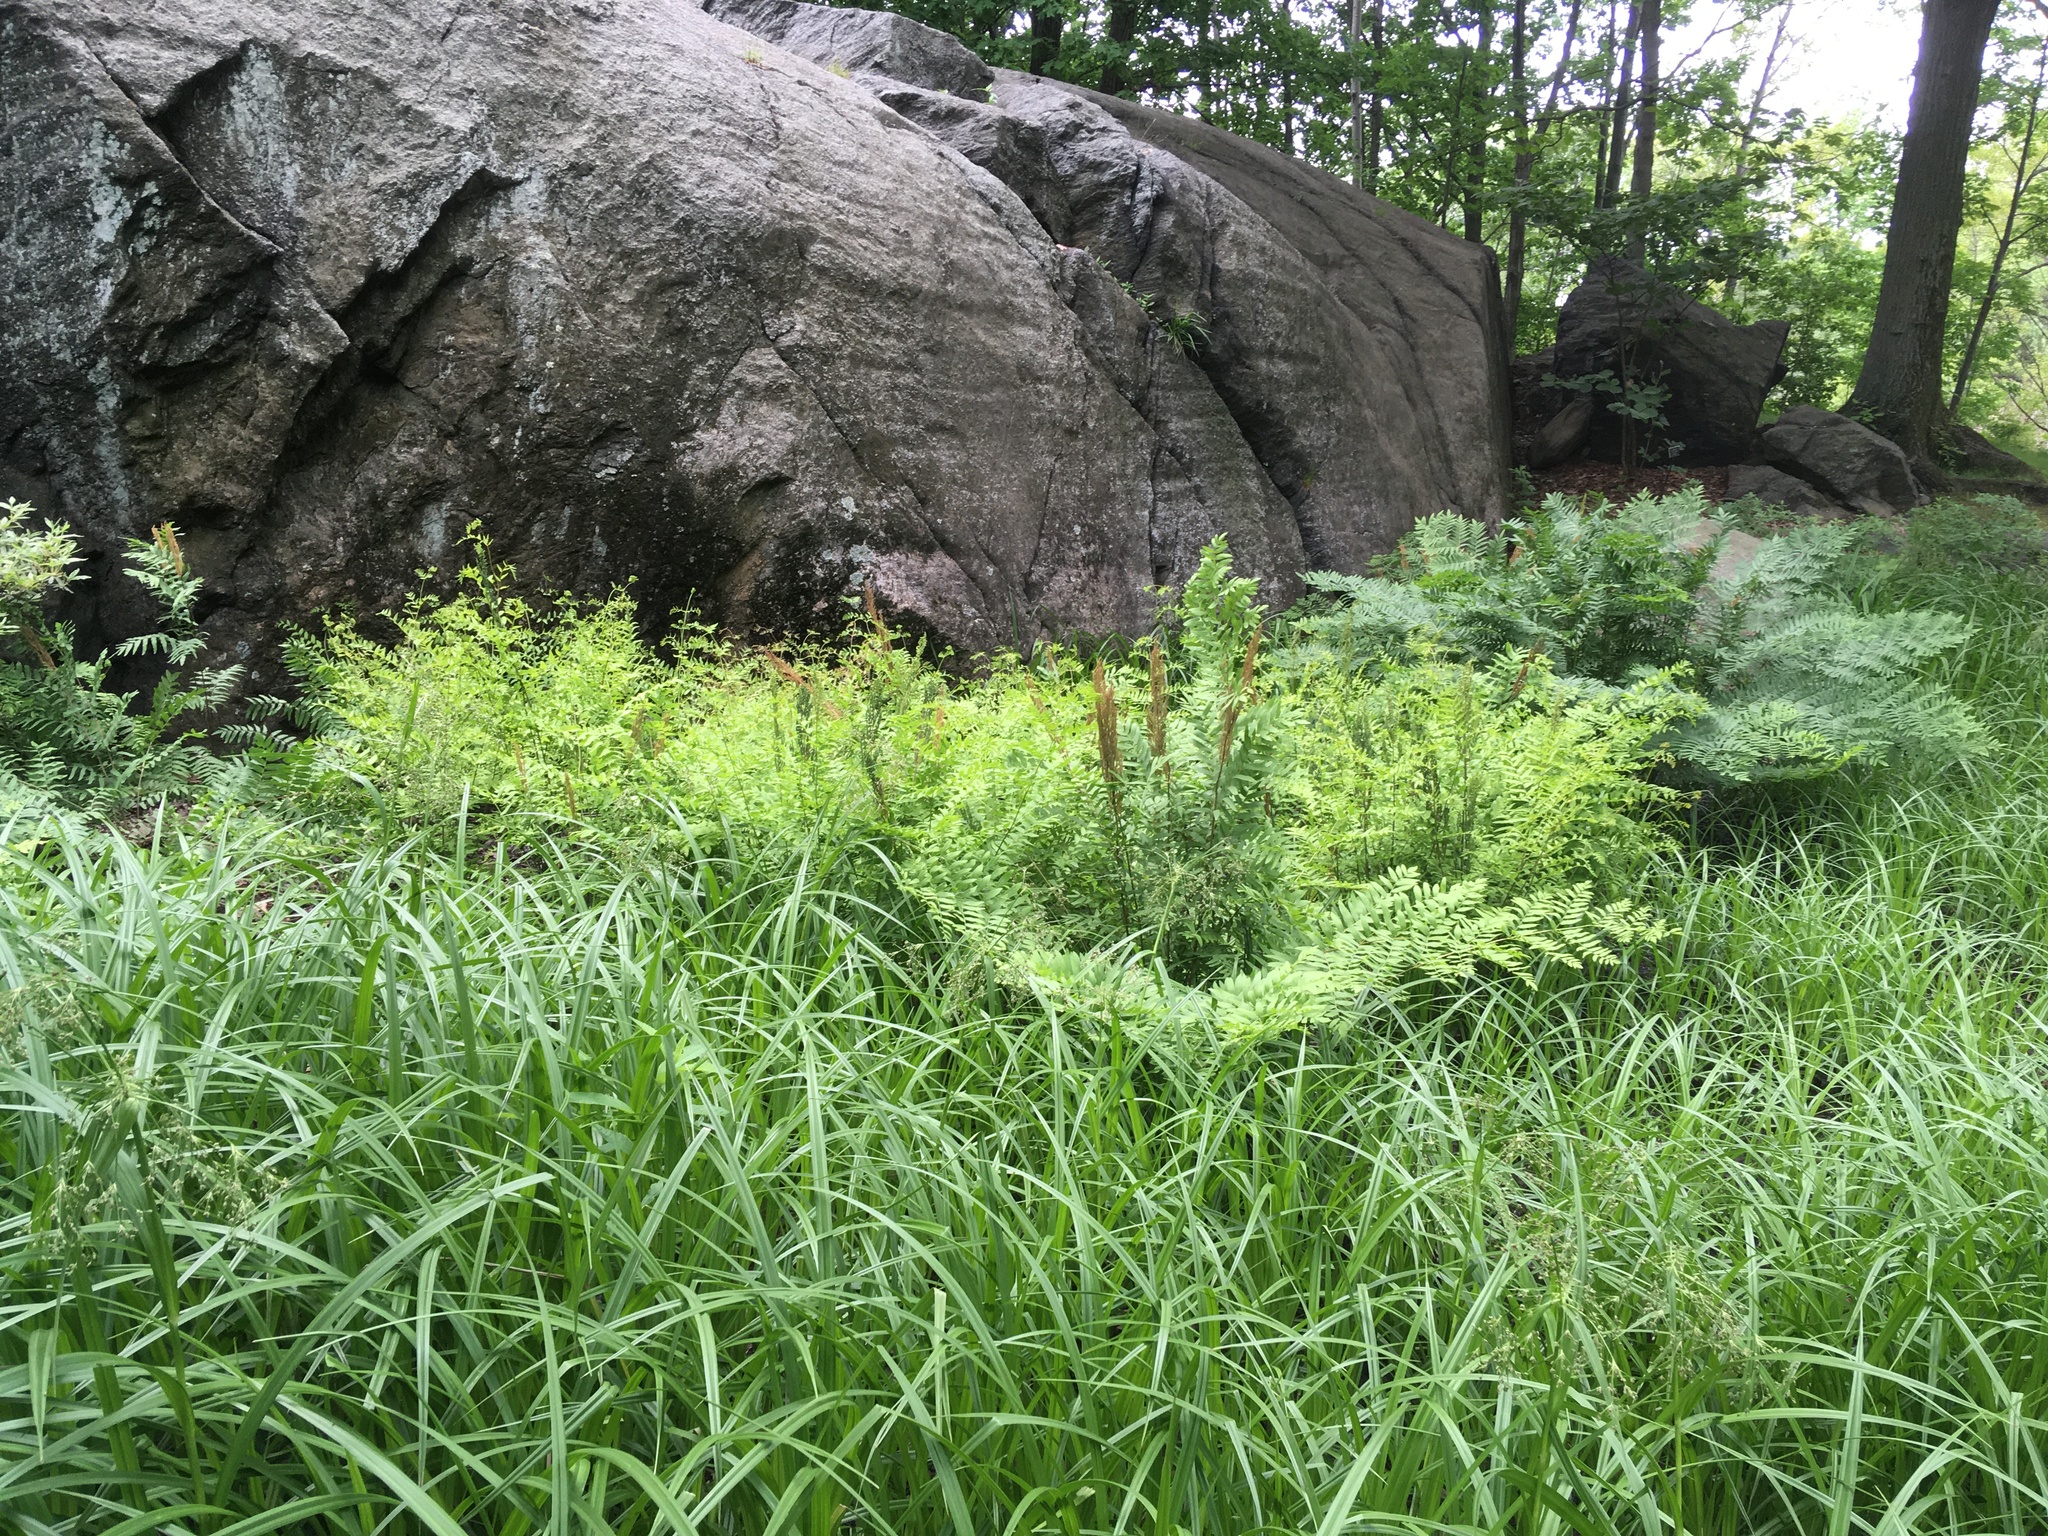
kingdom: Plantae
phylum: Tracheophyta
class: Liliopsida
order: Poales
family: Cyperaceae
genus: Scirpus
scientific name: Scirpus microcarpus
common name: Panicled bulrush
